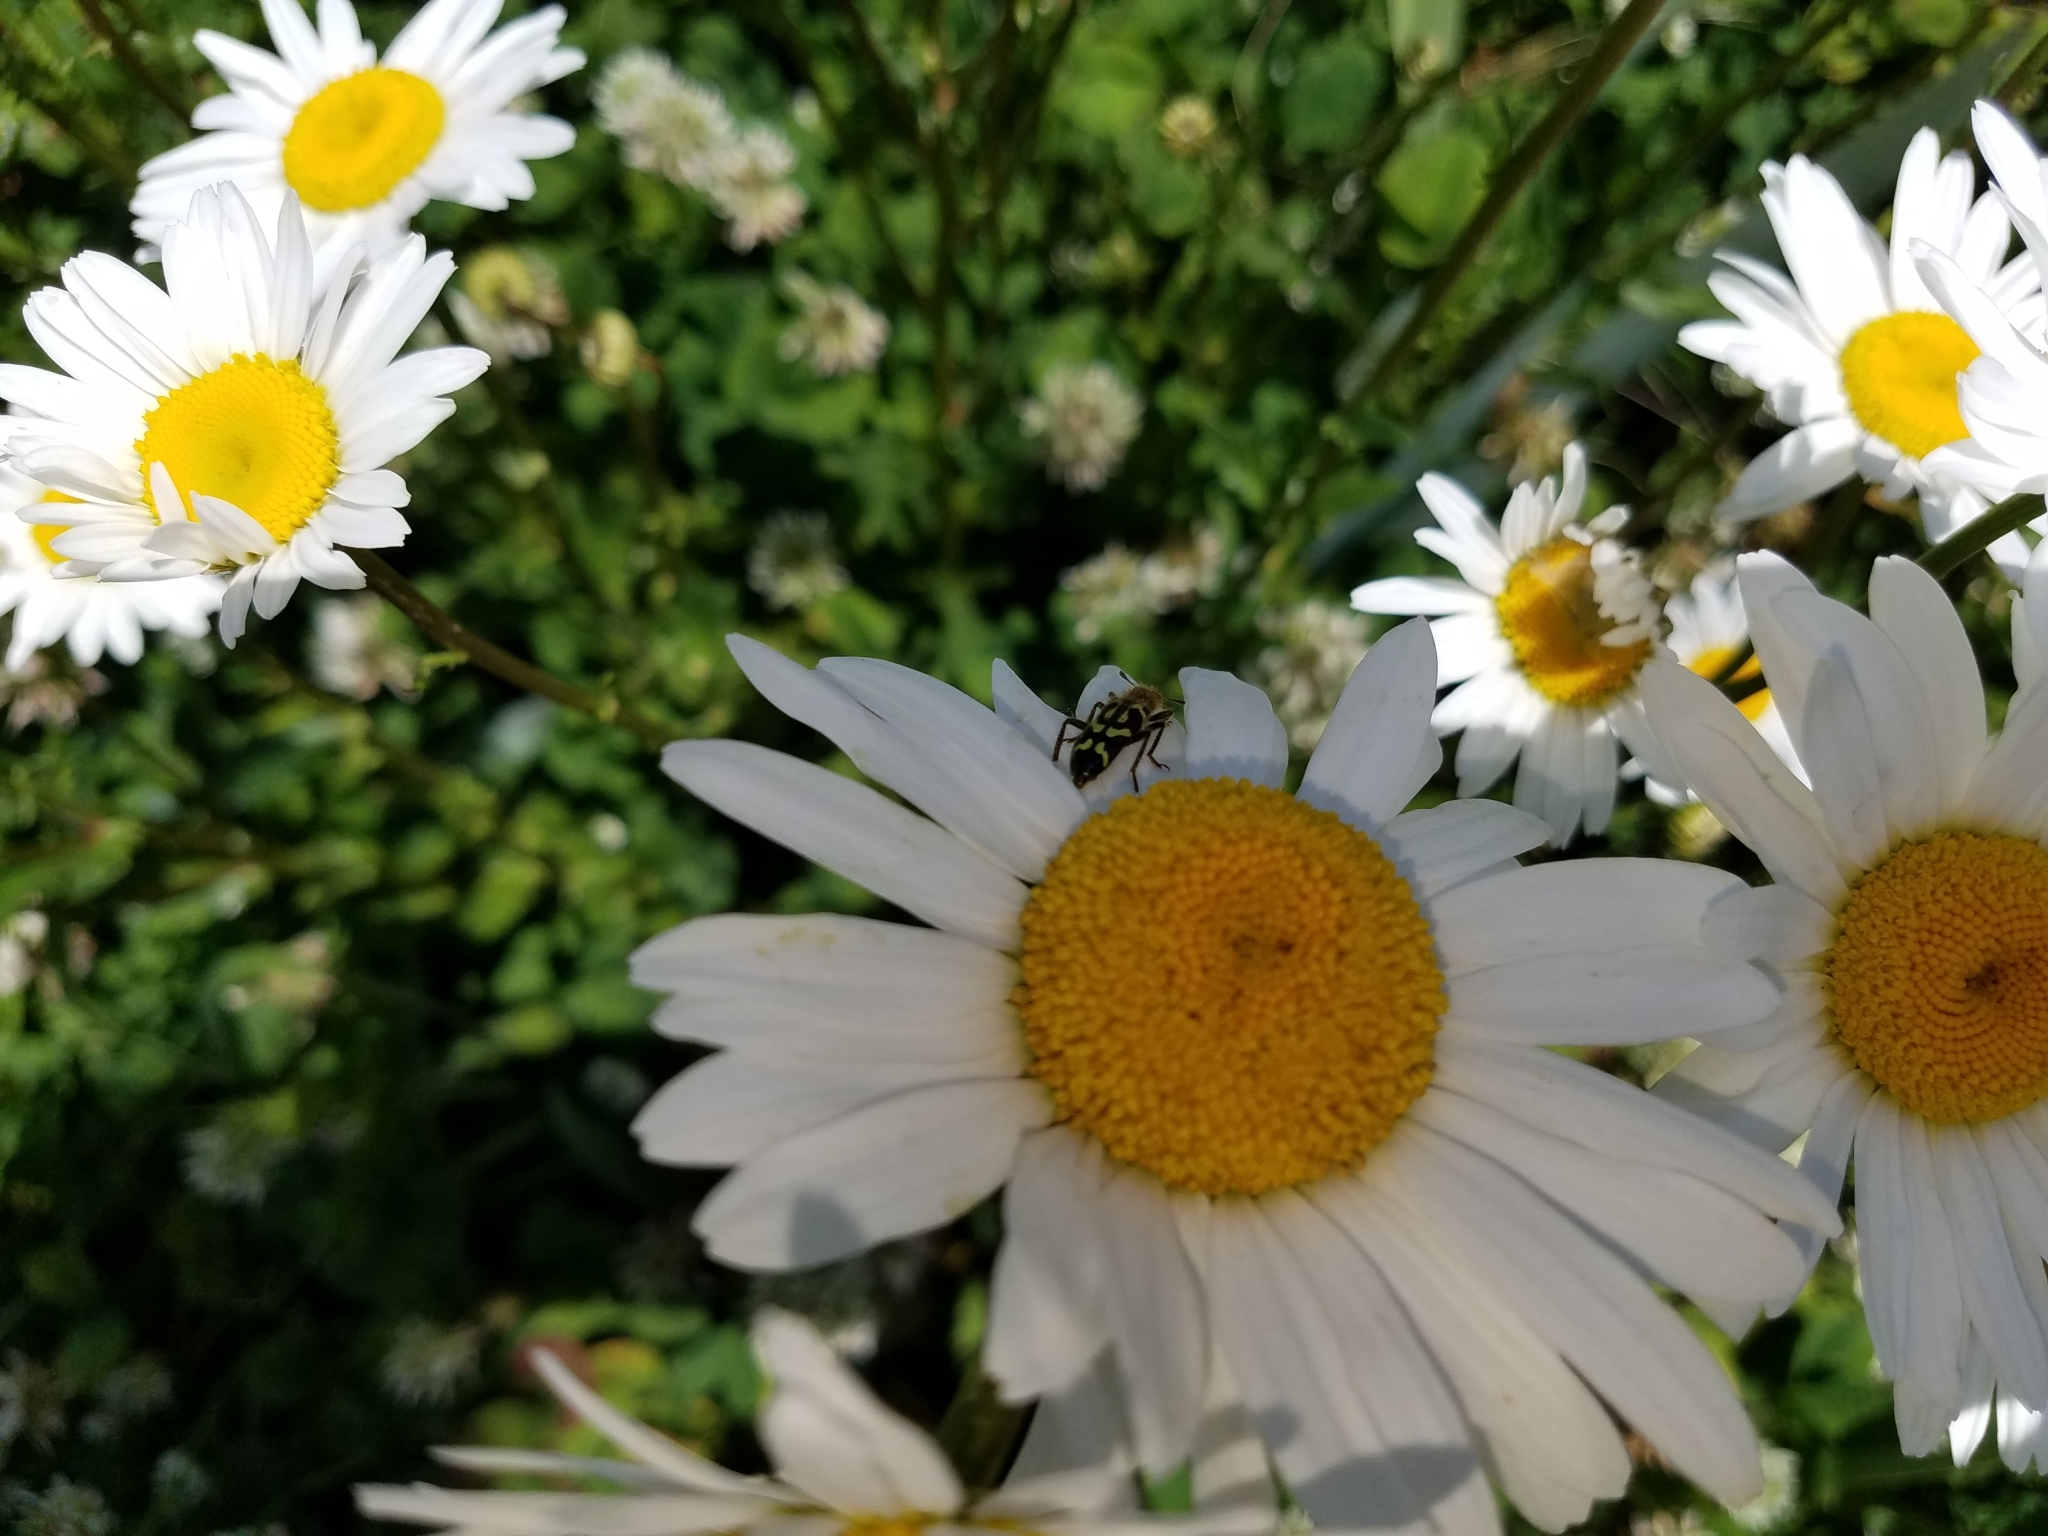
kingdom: Animalia
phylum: Arthropoda
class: Insecta
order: Coleoptera
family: Cleridae
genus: Trichodes
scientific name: Trichodes ornatus
